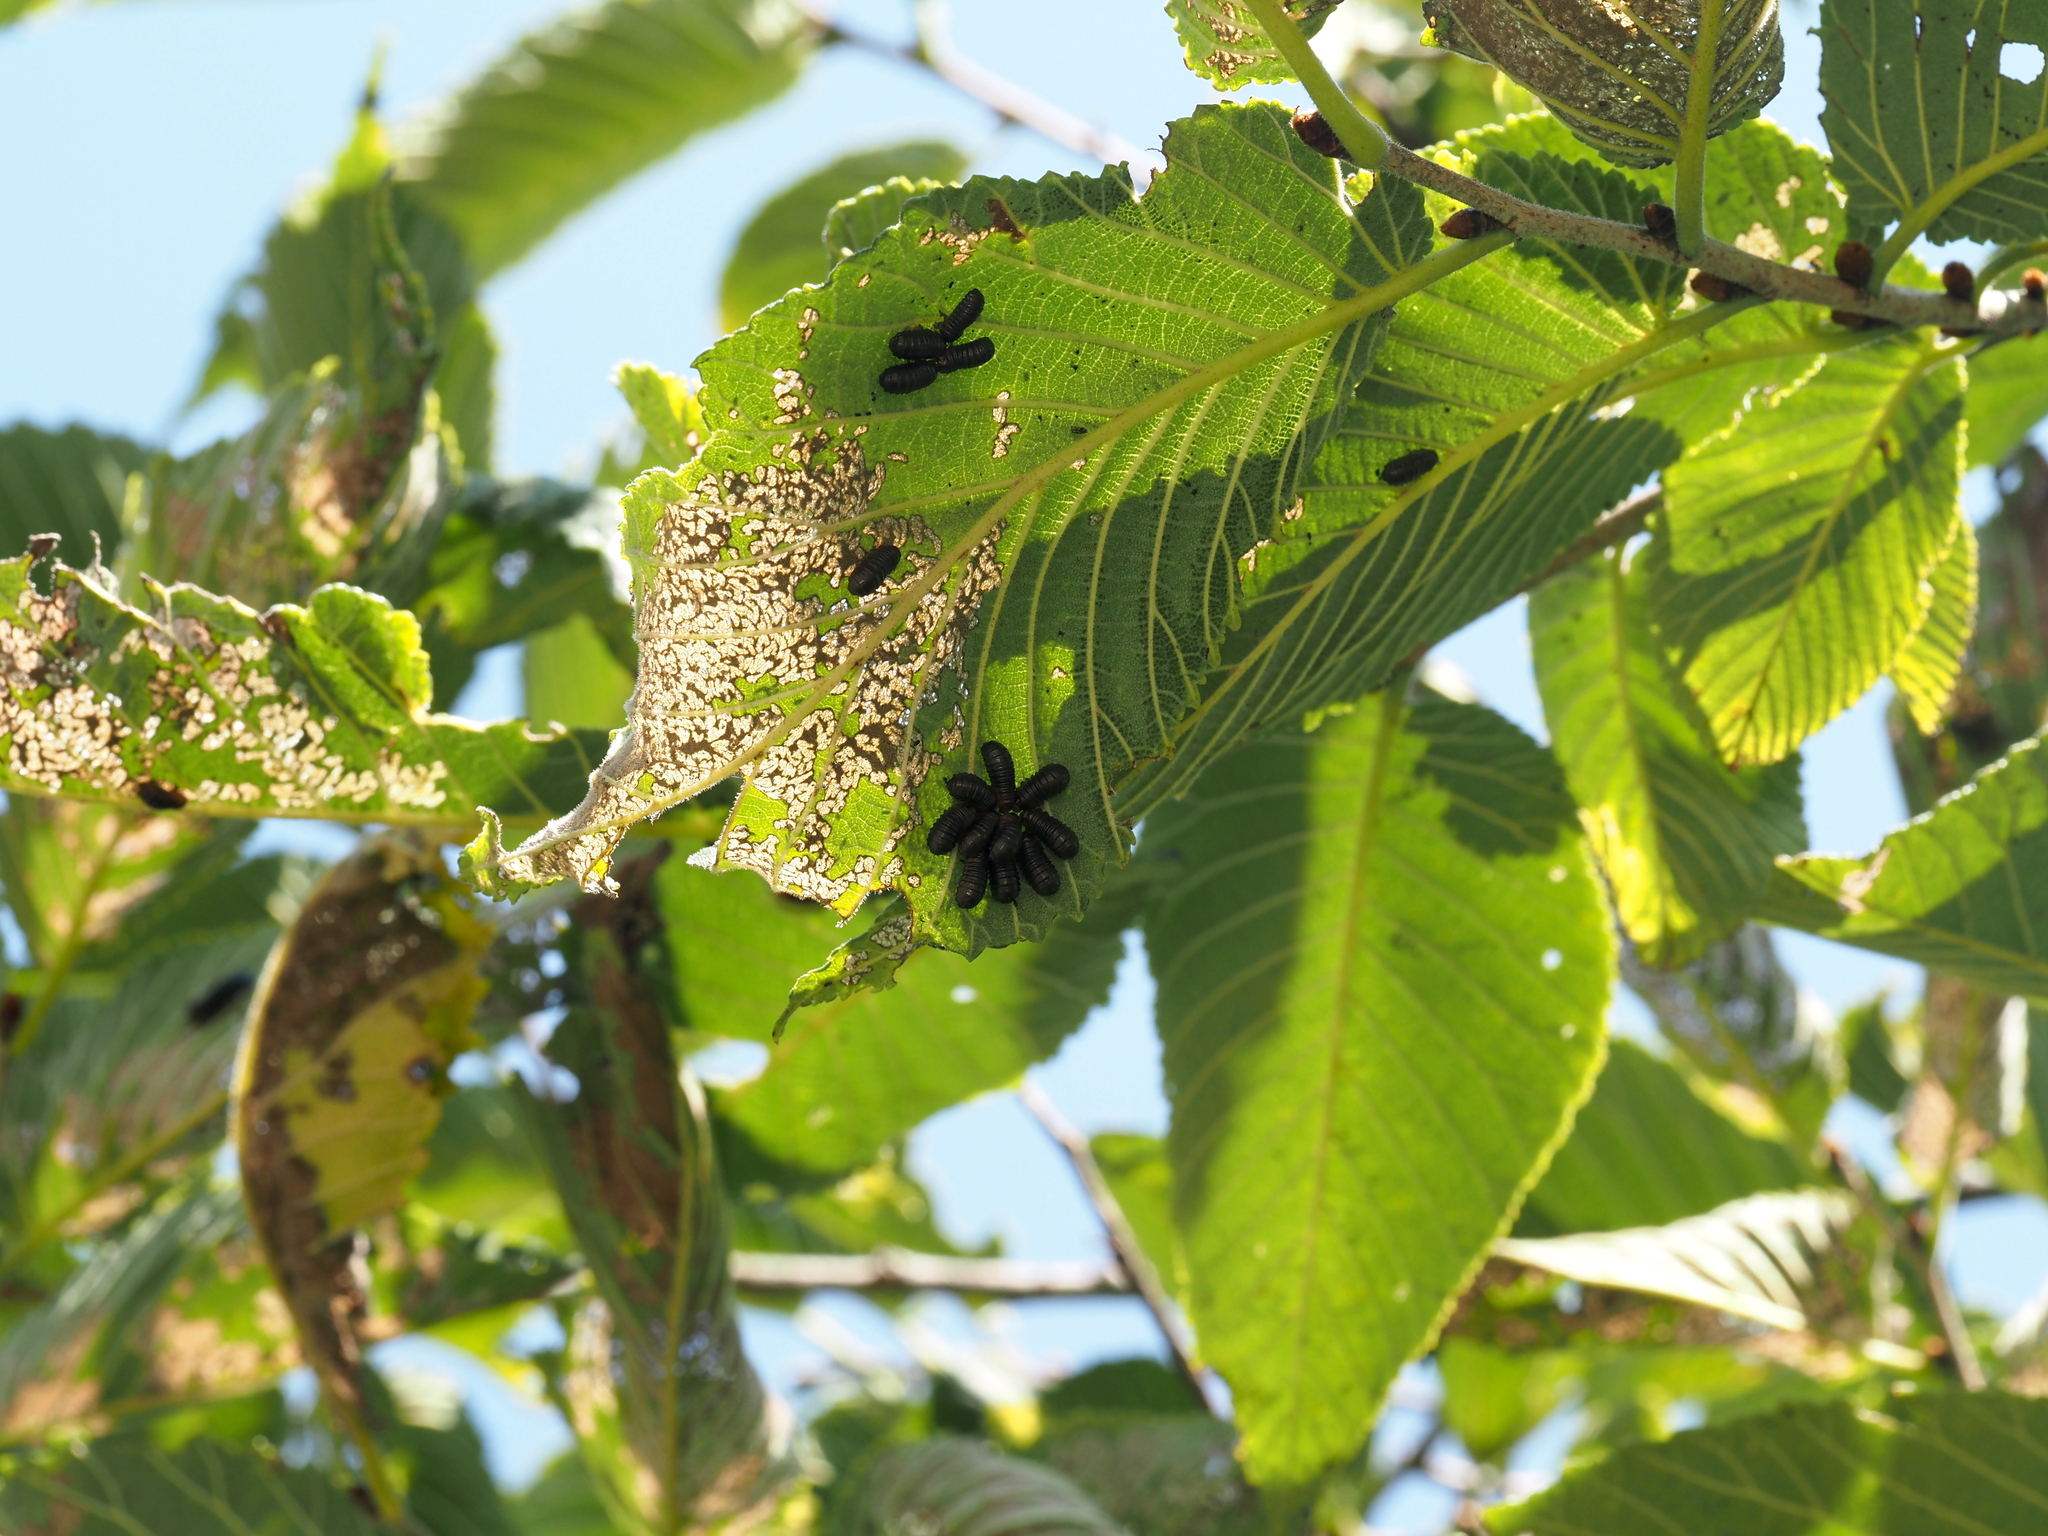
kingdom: Animalia
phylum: Arthropoda
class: Insecta
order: Coleoptera
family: Chrysomelidae
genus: Monocesta
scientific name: Monocesta coryli
